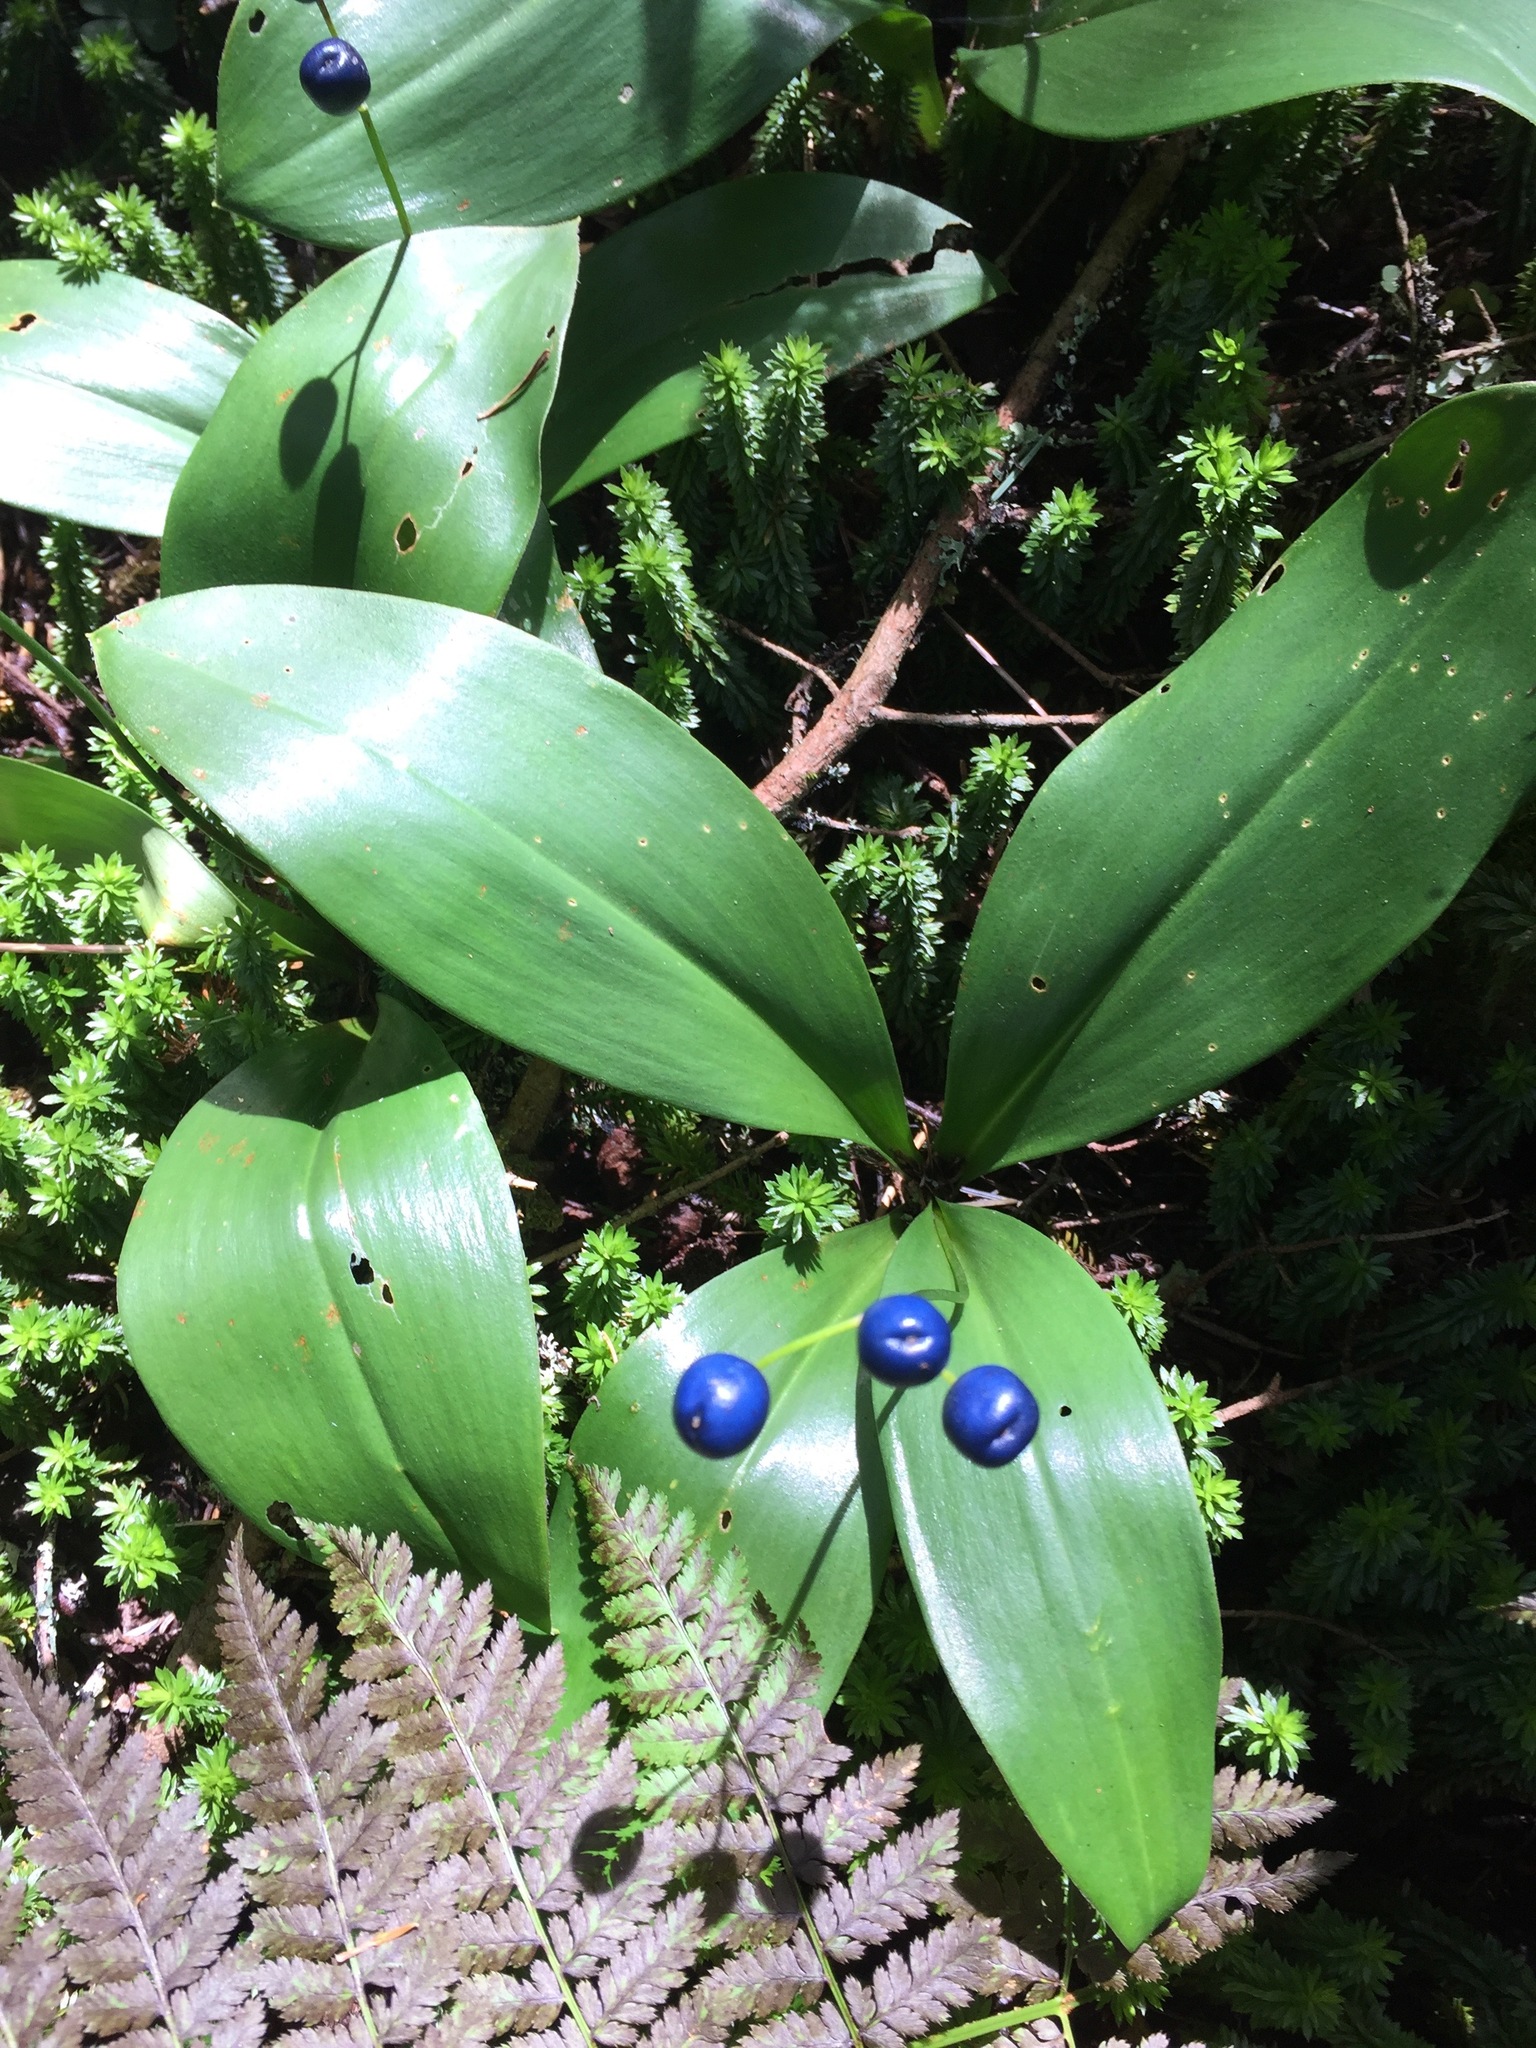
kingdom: Plantae
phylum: Tracheophyta
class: Liliopsida
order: Liliales
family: Liliaceae
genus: Clintonia
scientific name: Clintonia borealis
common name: Yellow clintonia
